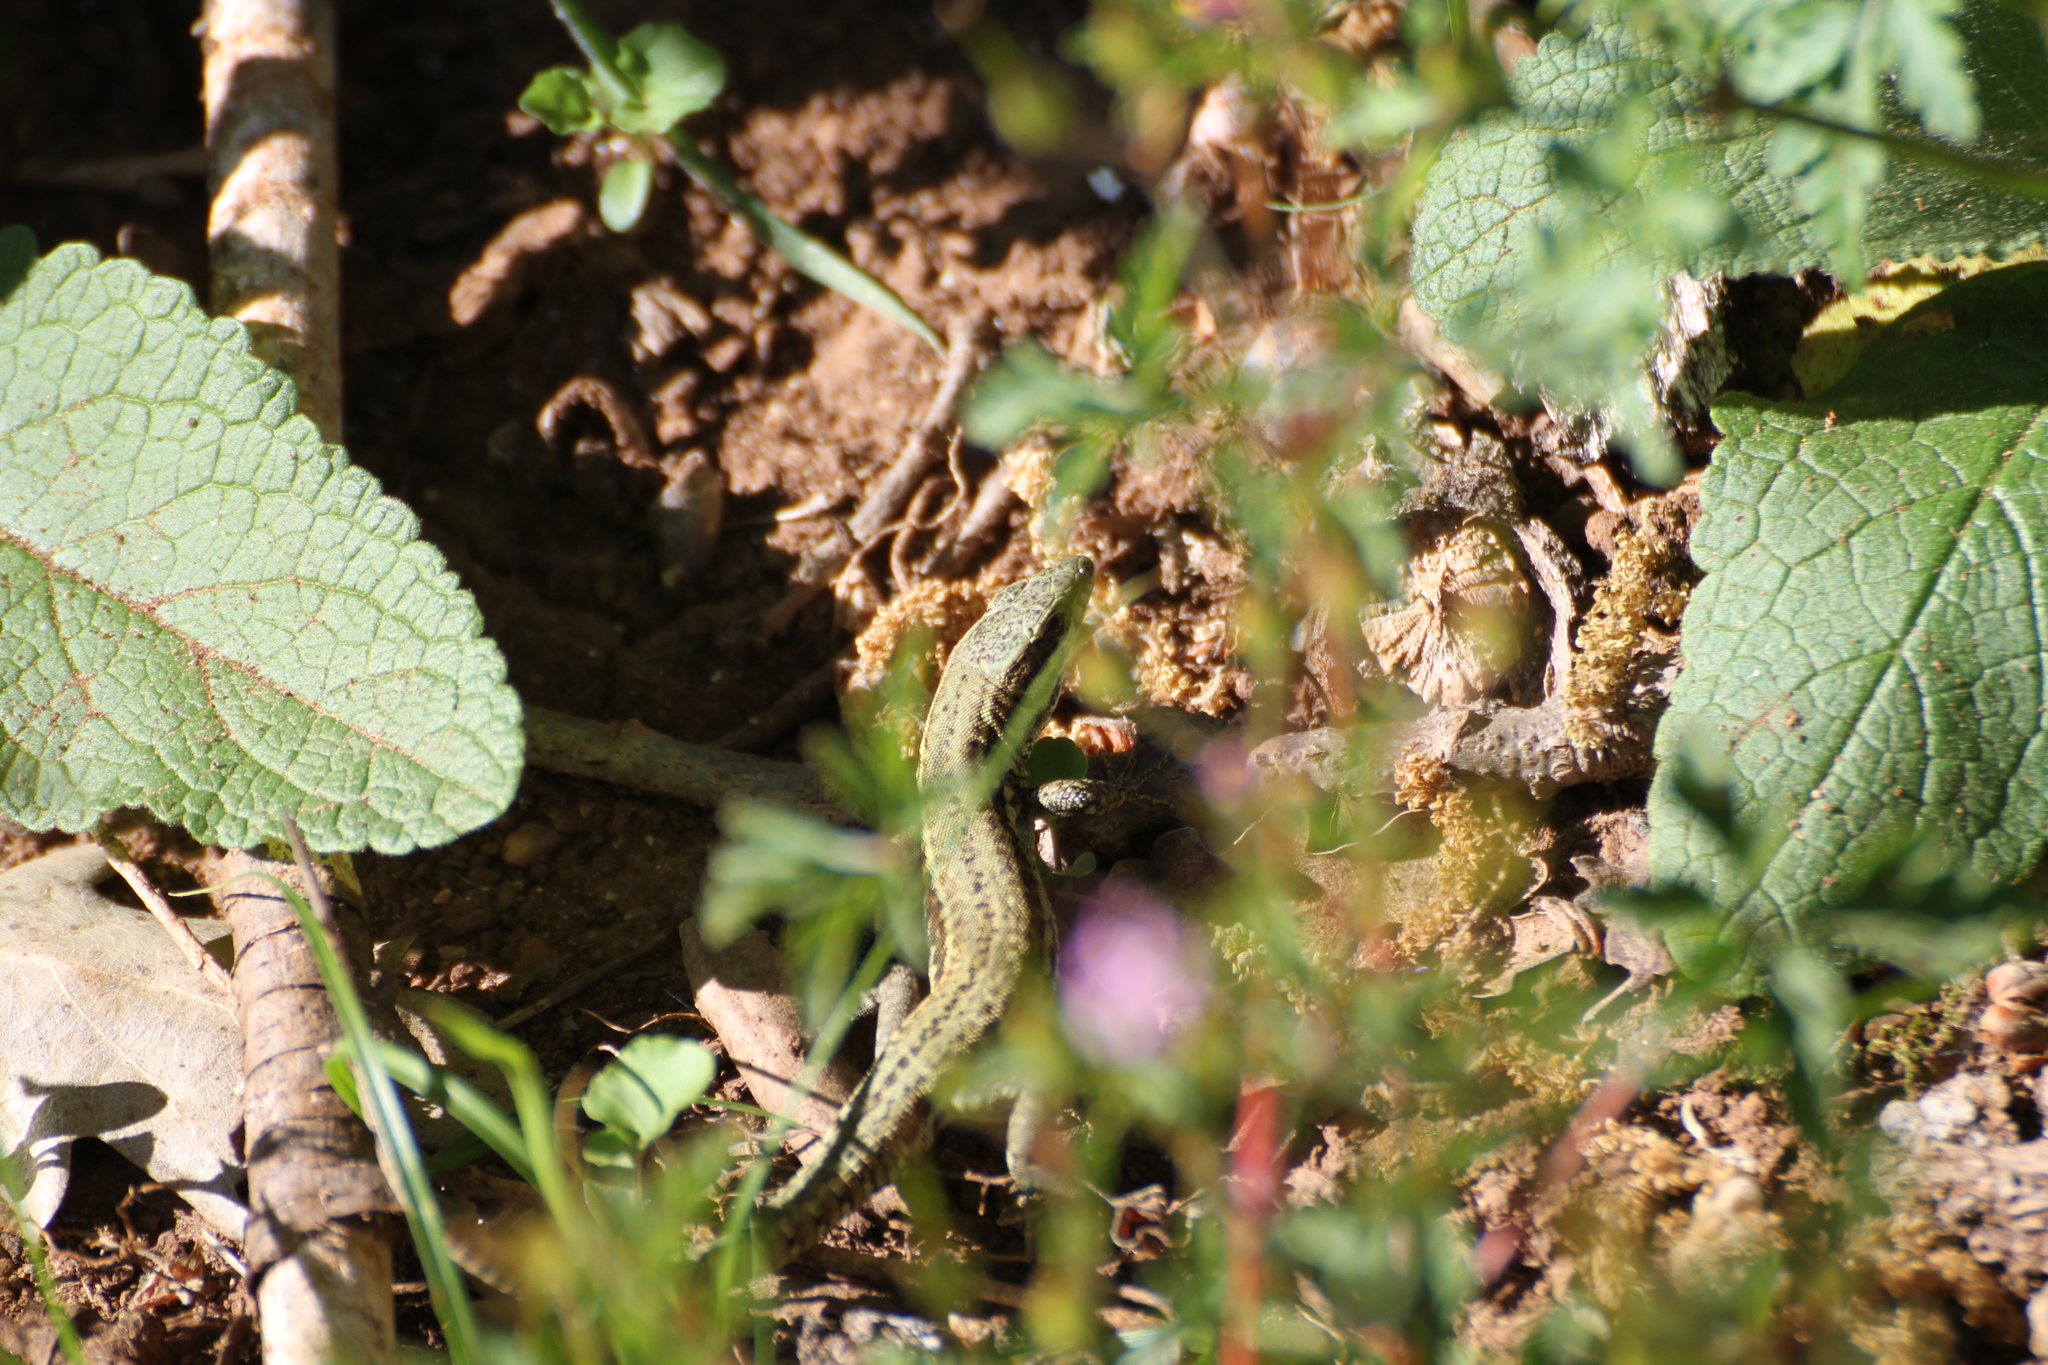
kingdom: Animalia
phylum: Chordata
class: Squamata
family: Lacertidae
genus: Podarcis
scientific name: Podarcis muralis
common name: Common wall lizard
